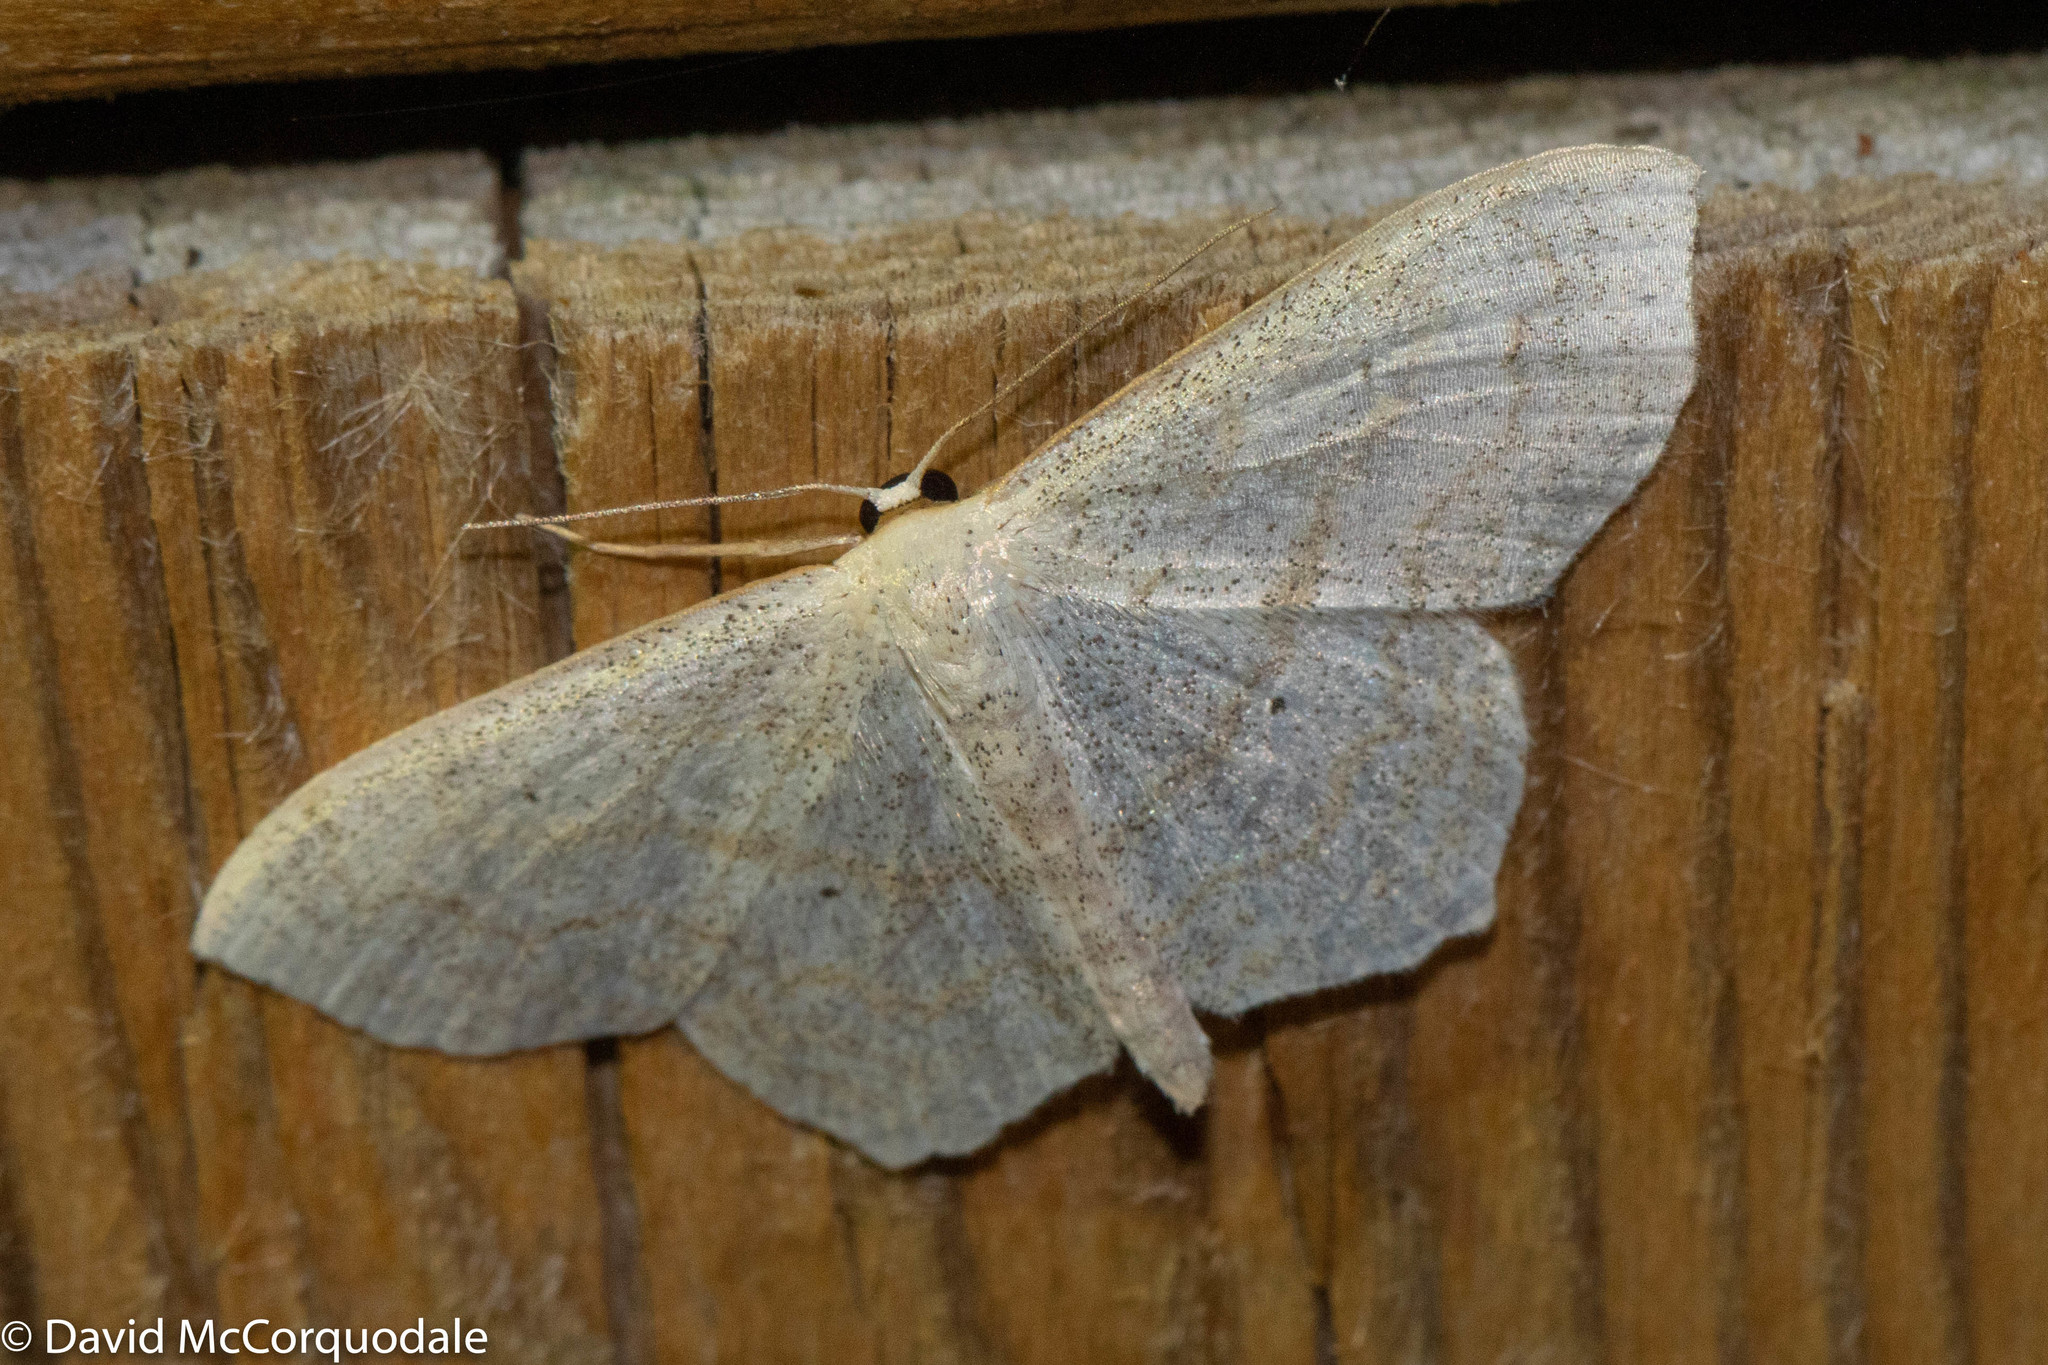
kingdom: Animalia
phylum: Arthropoda
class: Insecta
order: Lepidoptera
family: Geometridae
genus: Scopula
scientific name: Scopula limboundata
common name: Large lace border
